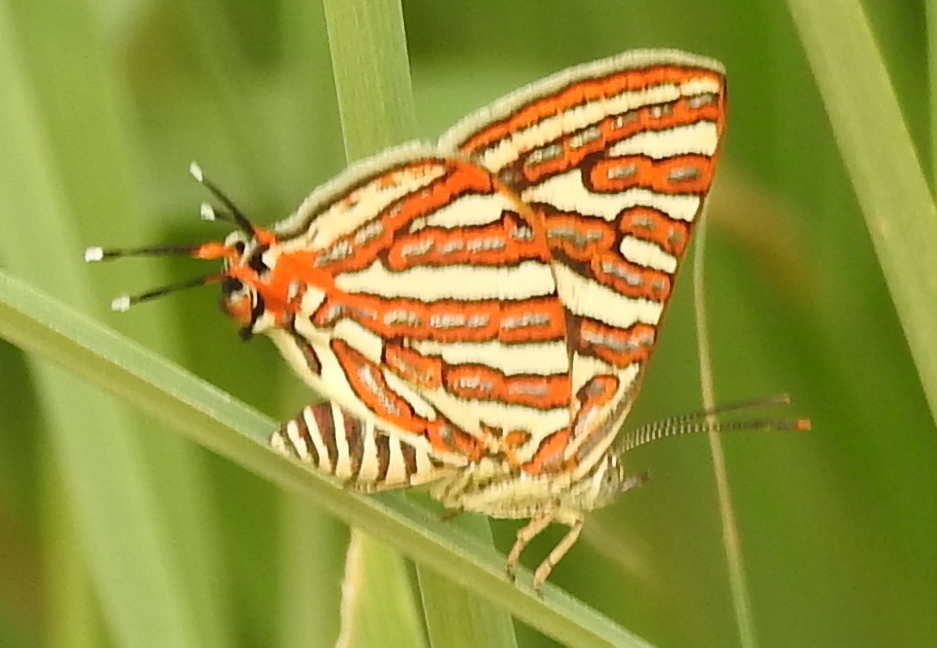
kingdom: Animalia
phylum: Arthropoda
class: Insecta
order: Lepidoptera
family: Lycaenidae
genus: Cigaritis
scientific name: Cigaritis vulcanus
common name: Common silverline
